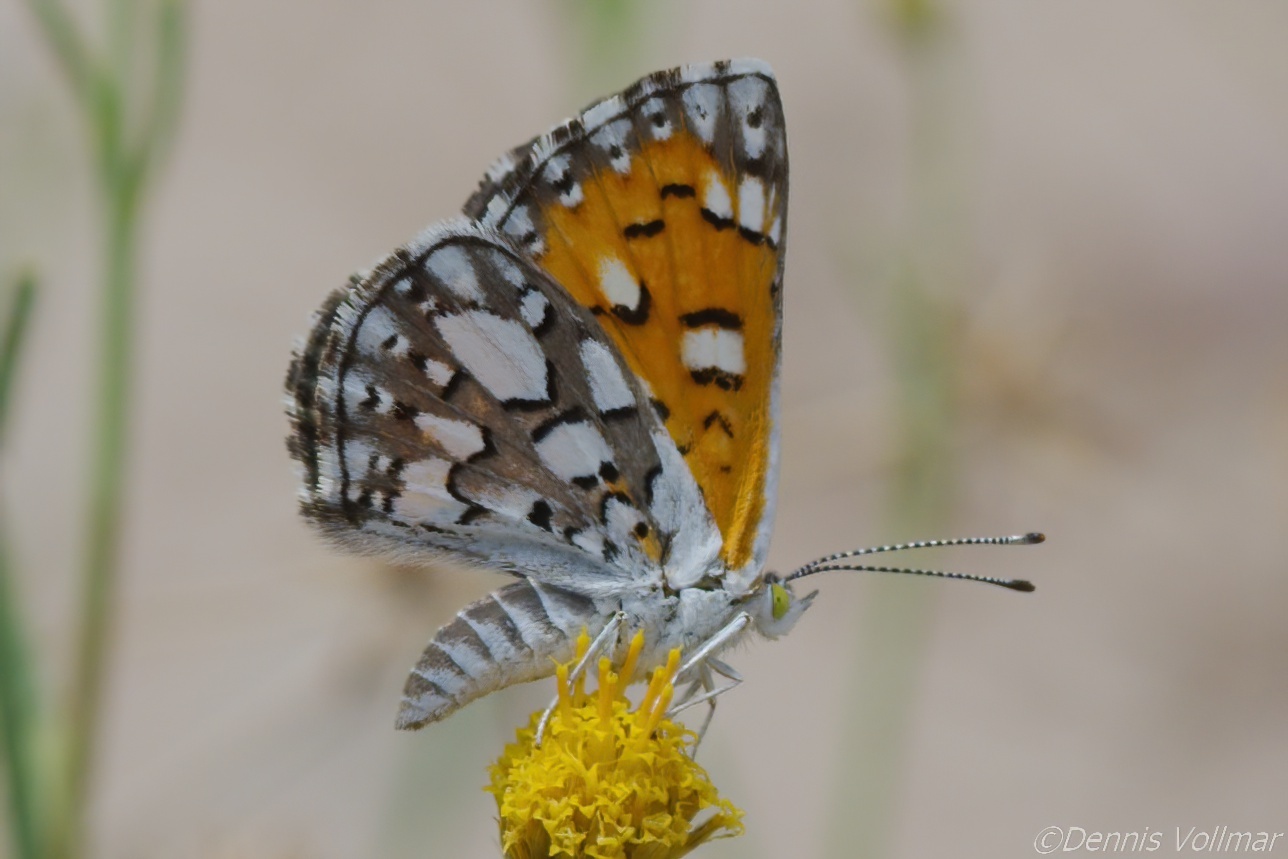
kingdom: Animalia
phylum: Arthropoda
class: Insecta
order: Lepidoptera
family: Riodinidae
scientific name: Riodinidae
